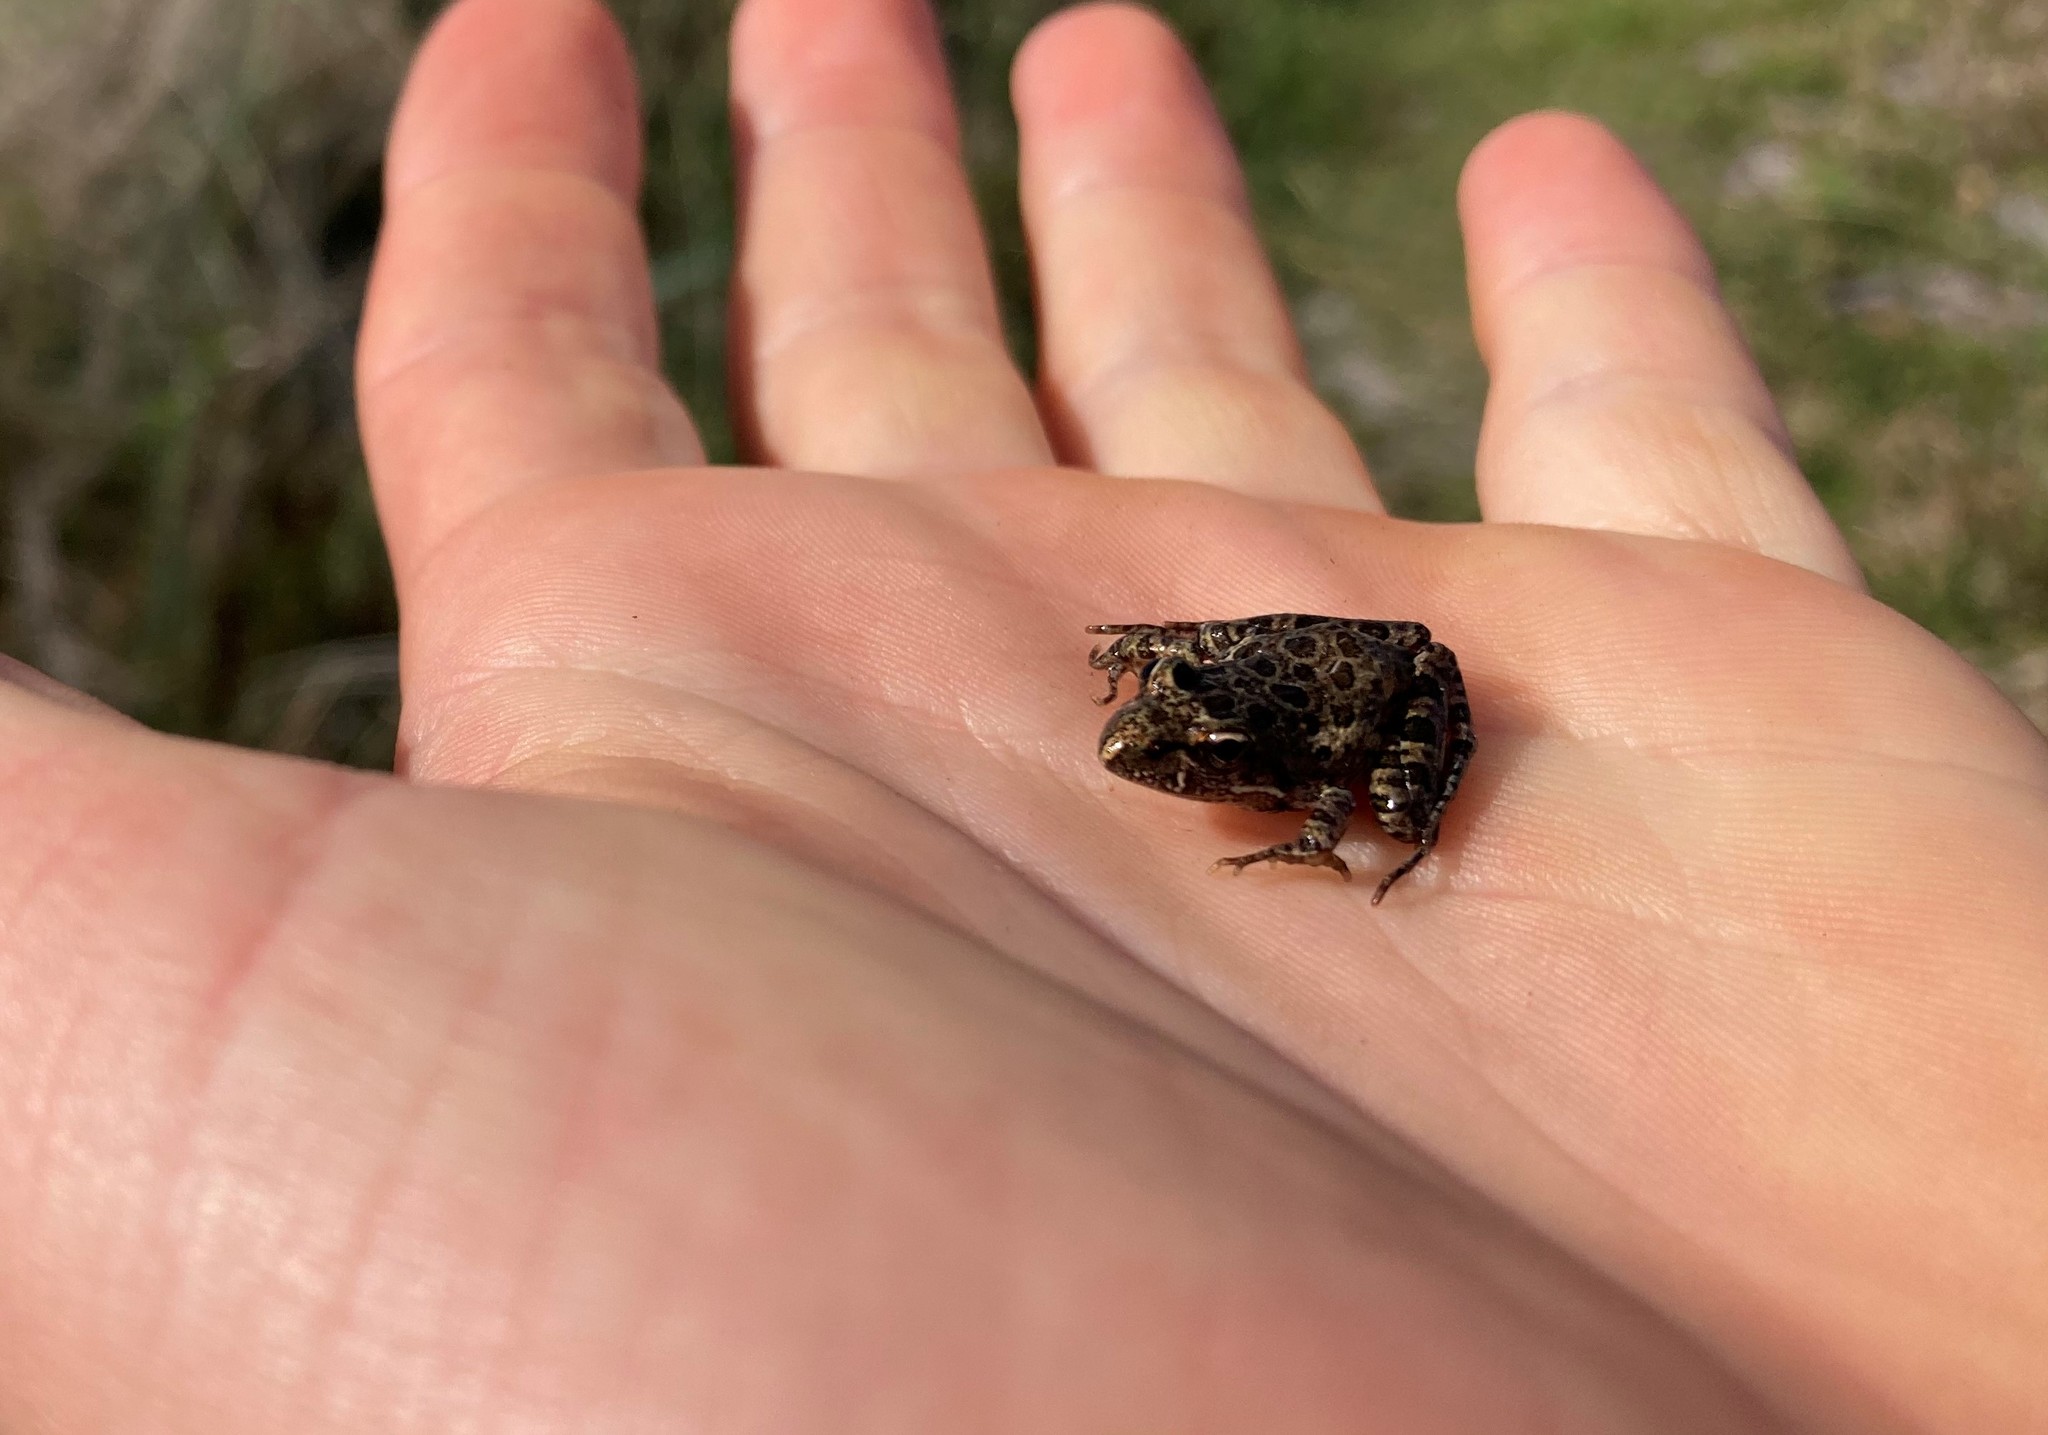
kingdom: Animalia
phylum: Chordata
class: Amphibia
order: Anura
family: Pyxicephalidae
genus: Strongylopus
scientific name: Strongylopus grayii
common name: Gray's stream frog
